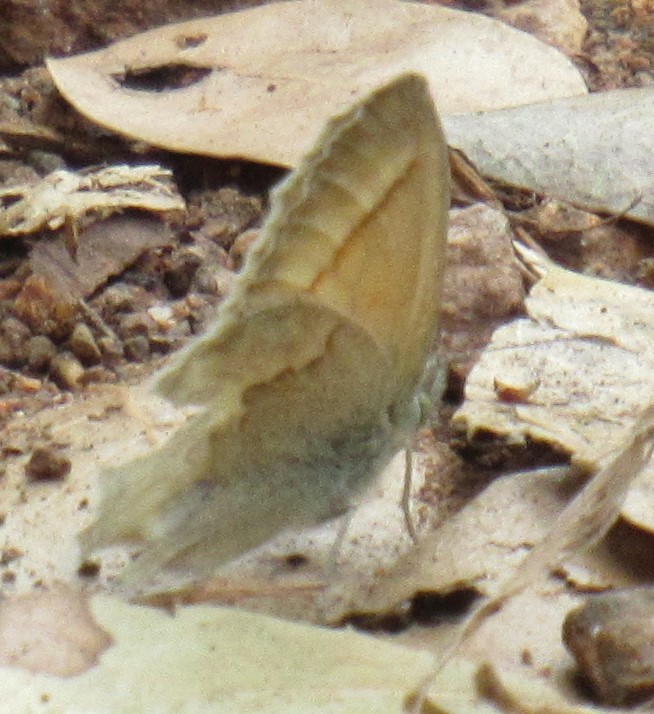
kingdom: Animalia
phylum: Arthropoda
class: Insecta
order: Lepidoptera
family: Nymphalidae
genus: Coenonympha
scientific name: Coenonympha california
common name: Common ringlet
